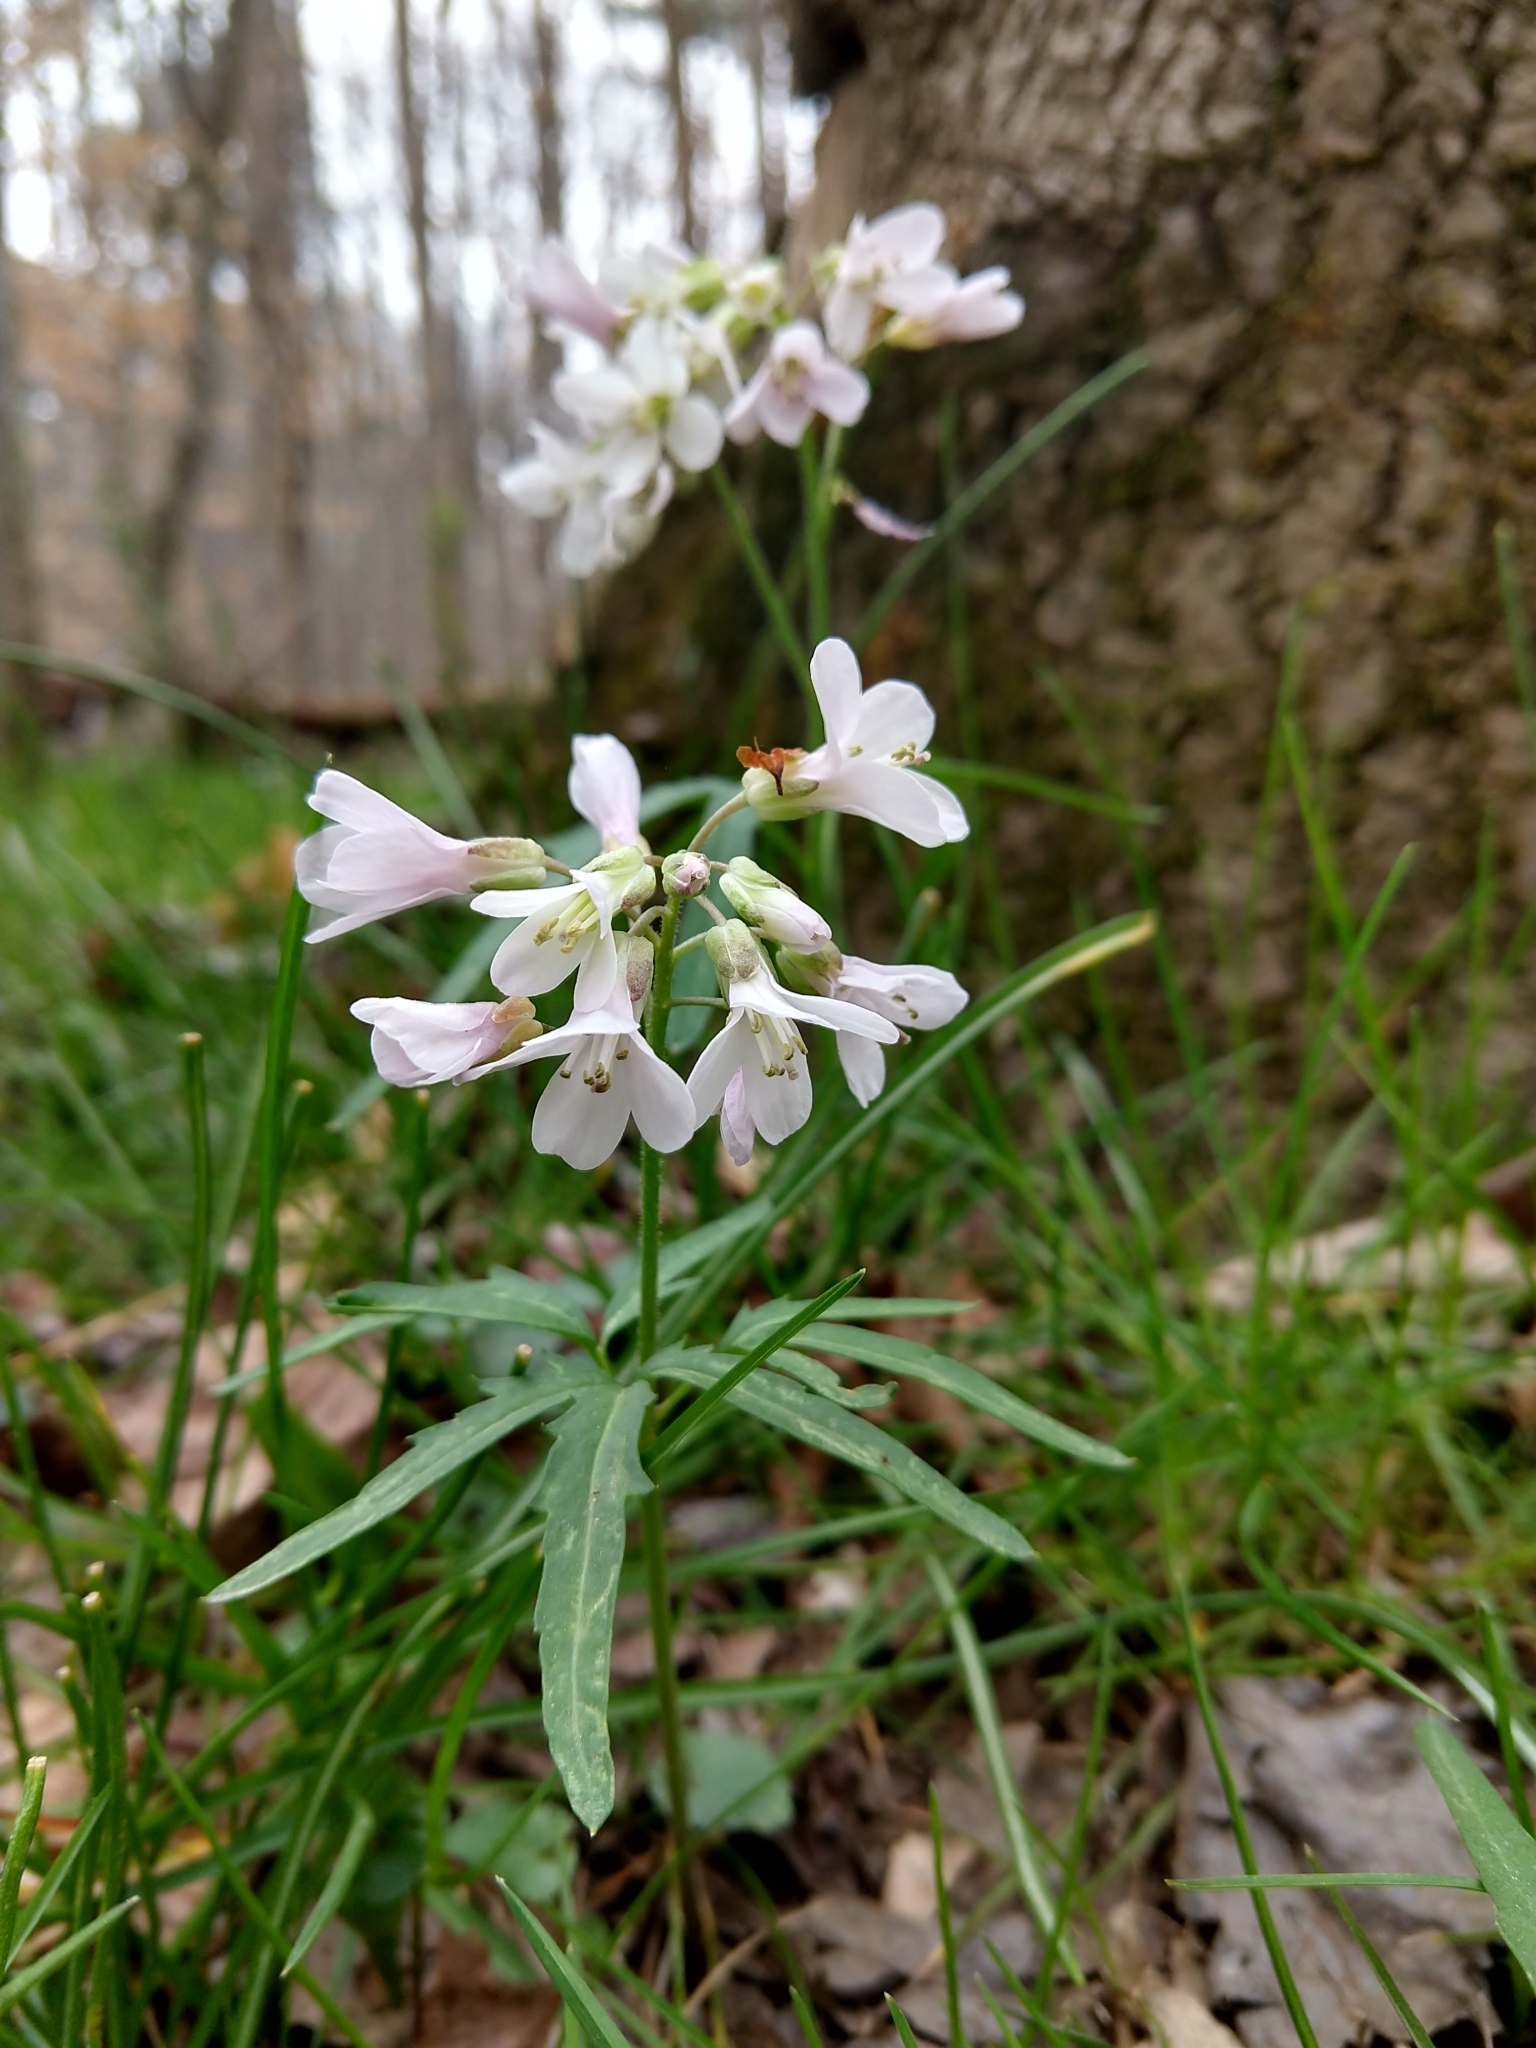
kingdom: Plantae
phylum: Tracheophyta
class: Magnoliopsida
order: Brassicales
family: Brassicaceae
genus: Cardamine
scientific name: Cardamine concatenata
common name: Cut-leaf toothcup
